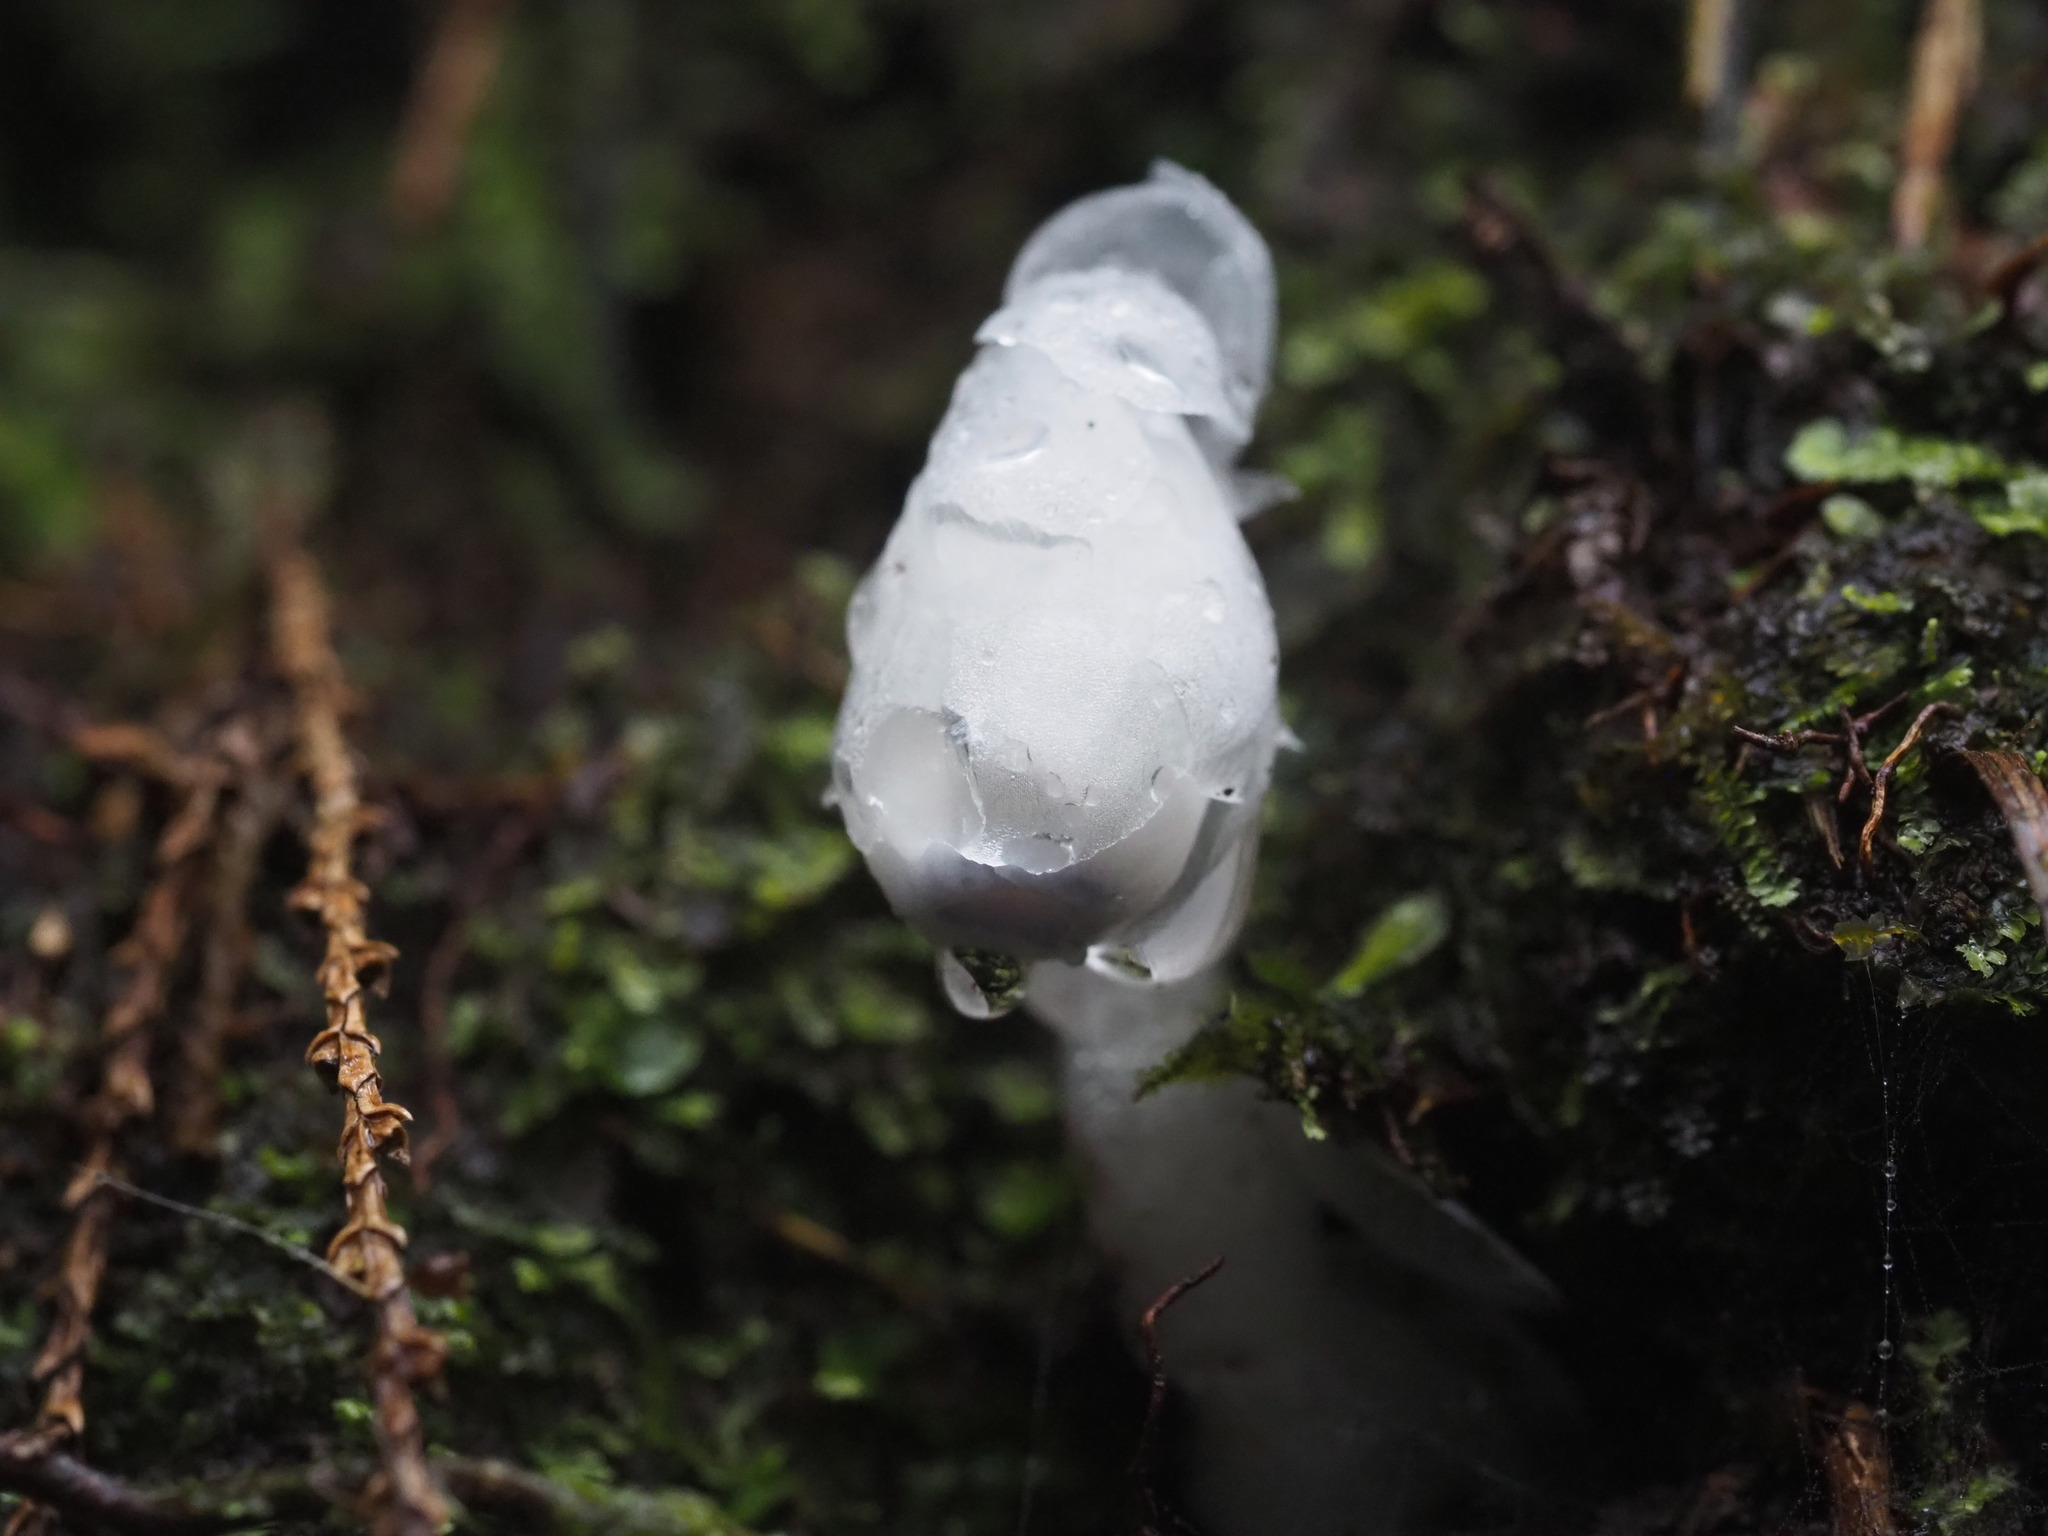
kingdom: Plantae
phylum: Tracheophyta
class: Magnoliopsida
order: Ericales
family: Ericaceae
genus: Monotropastrum
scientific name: Monotropastrum humile
